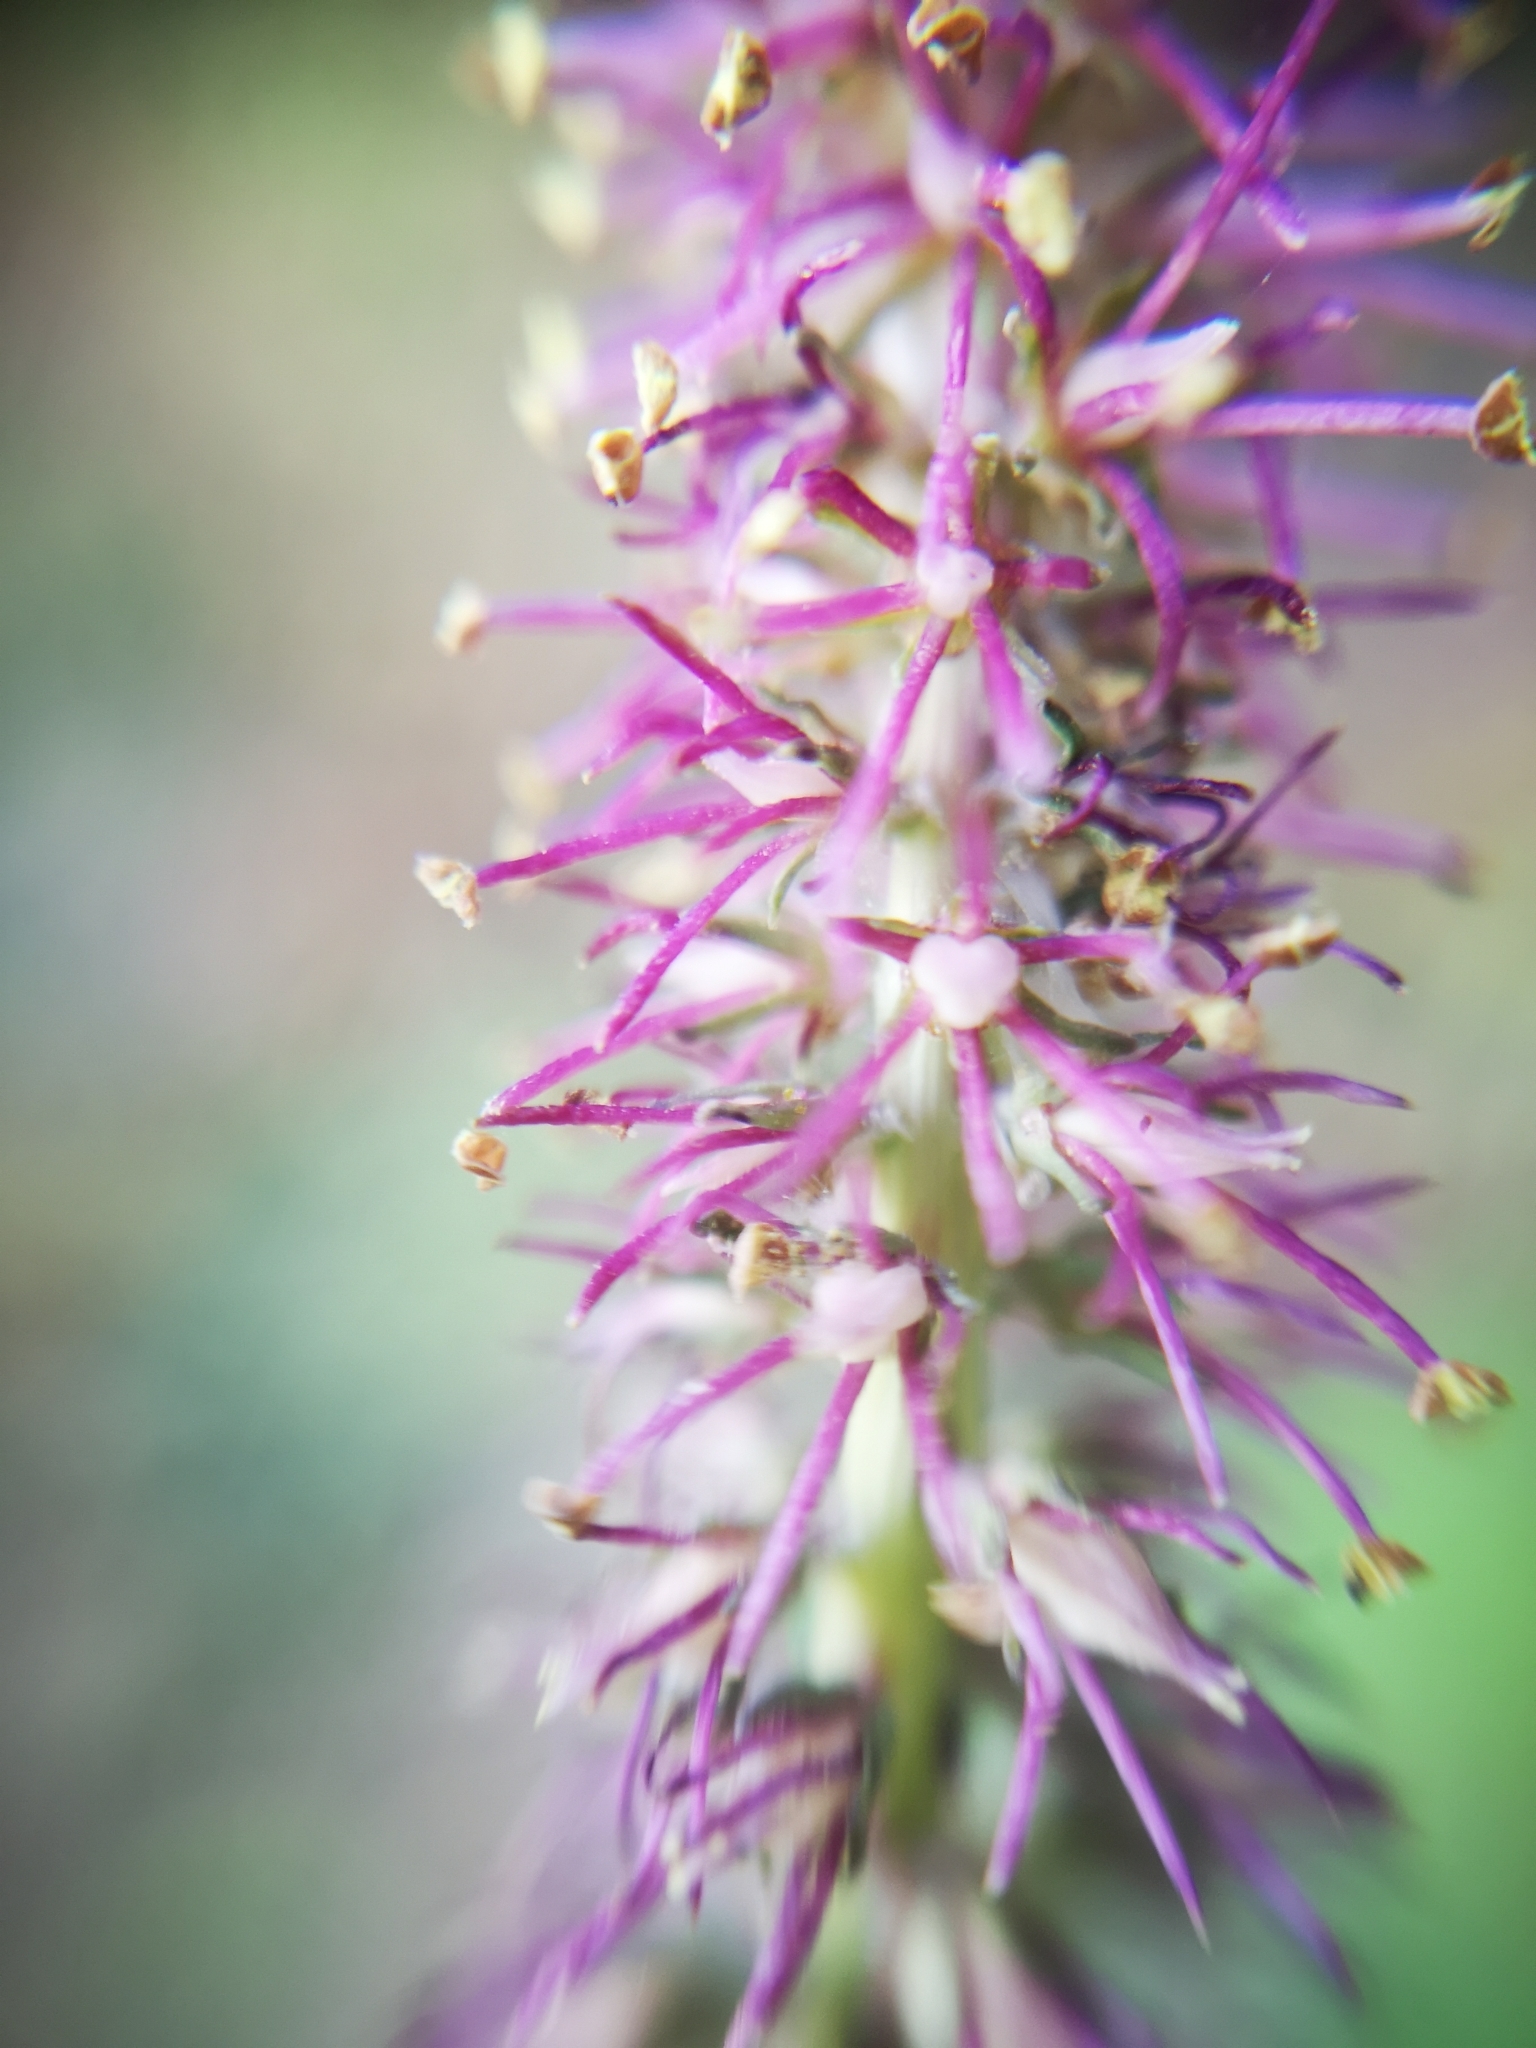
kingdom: Plantae
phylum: Tracheophyta
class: Liliopsida
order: Liliales
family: Melanthiaceae
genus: Schoenocaulon
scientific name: Schoenocaulon macrocarpum
